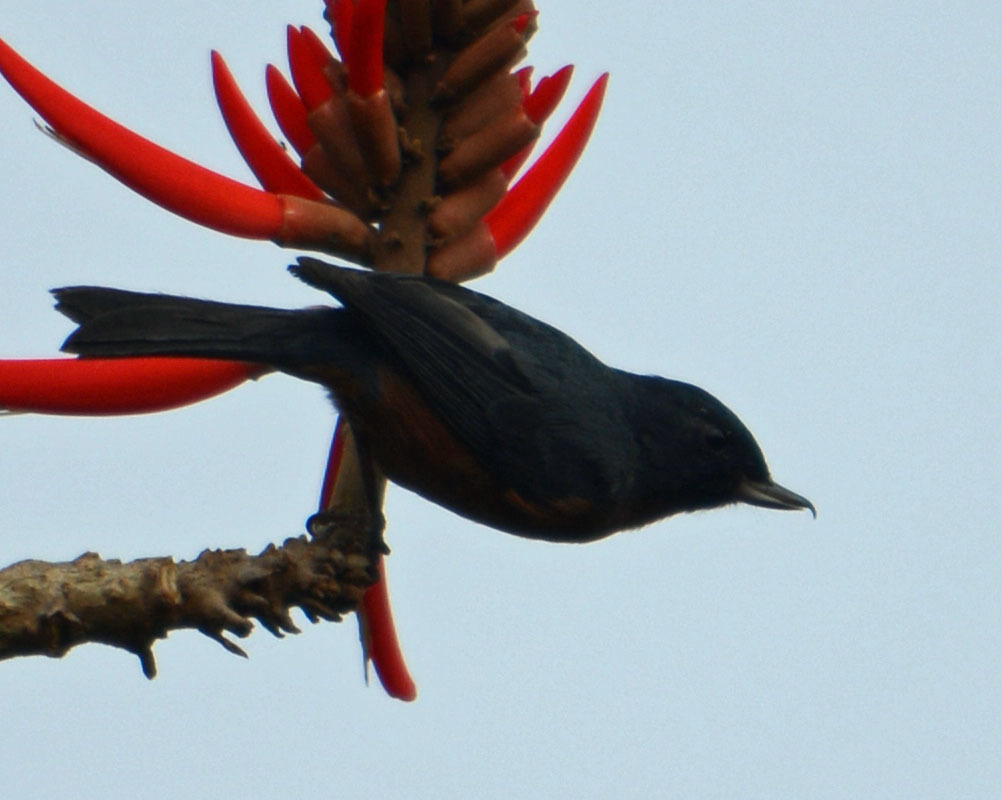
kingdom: Animalia
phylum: Chordata
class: Aves
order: Passeriformes
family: Thraupidae
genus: Diglossa
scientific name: Diglossa baritula
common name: Cinnamon-bellied flowerpiercer
